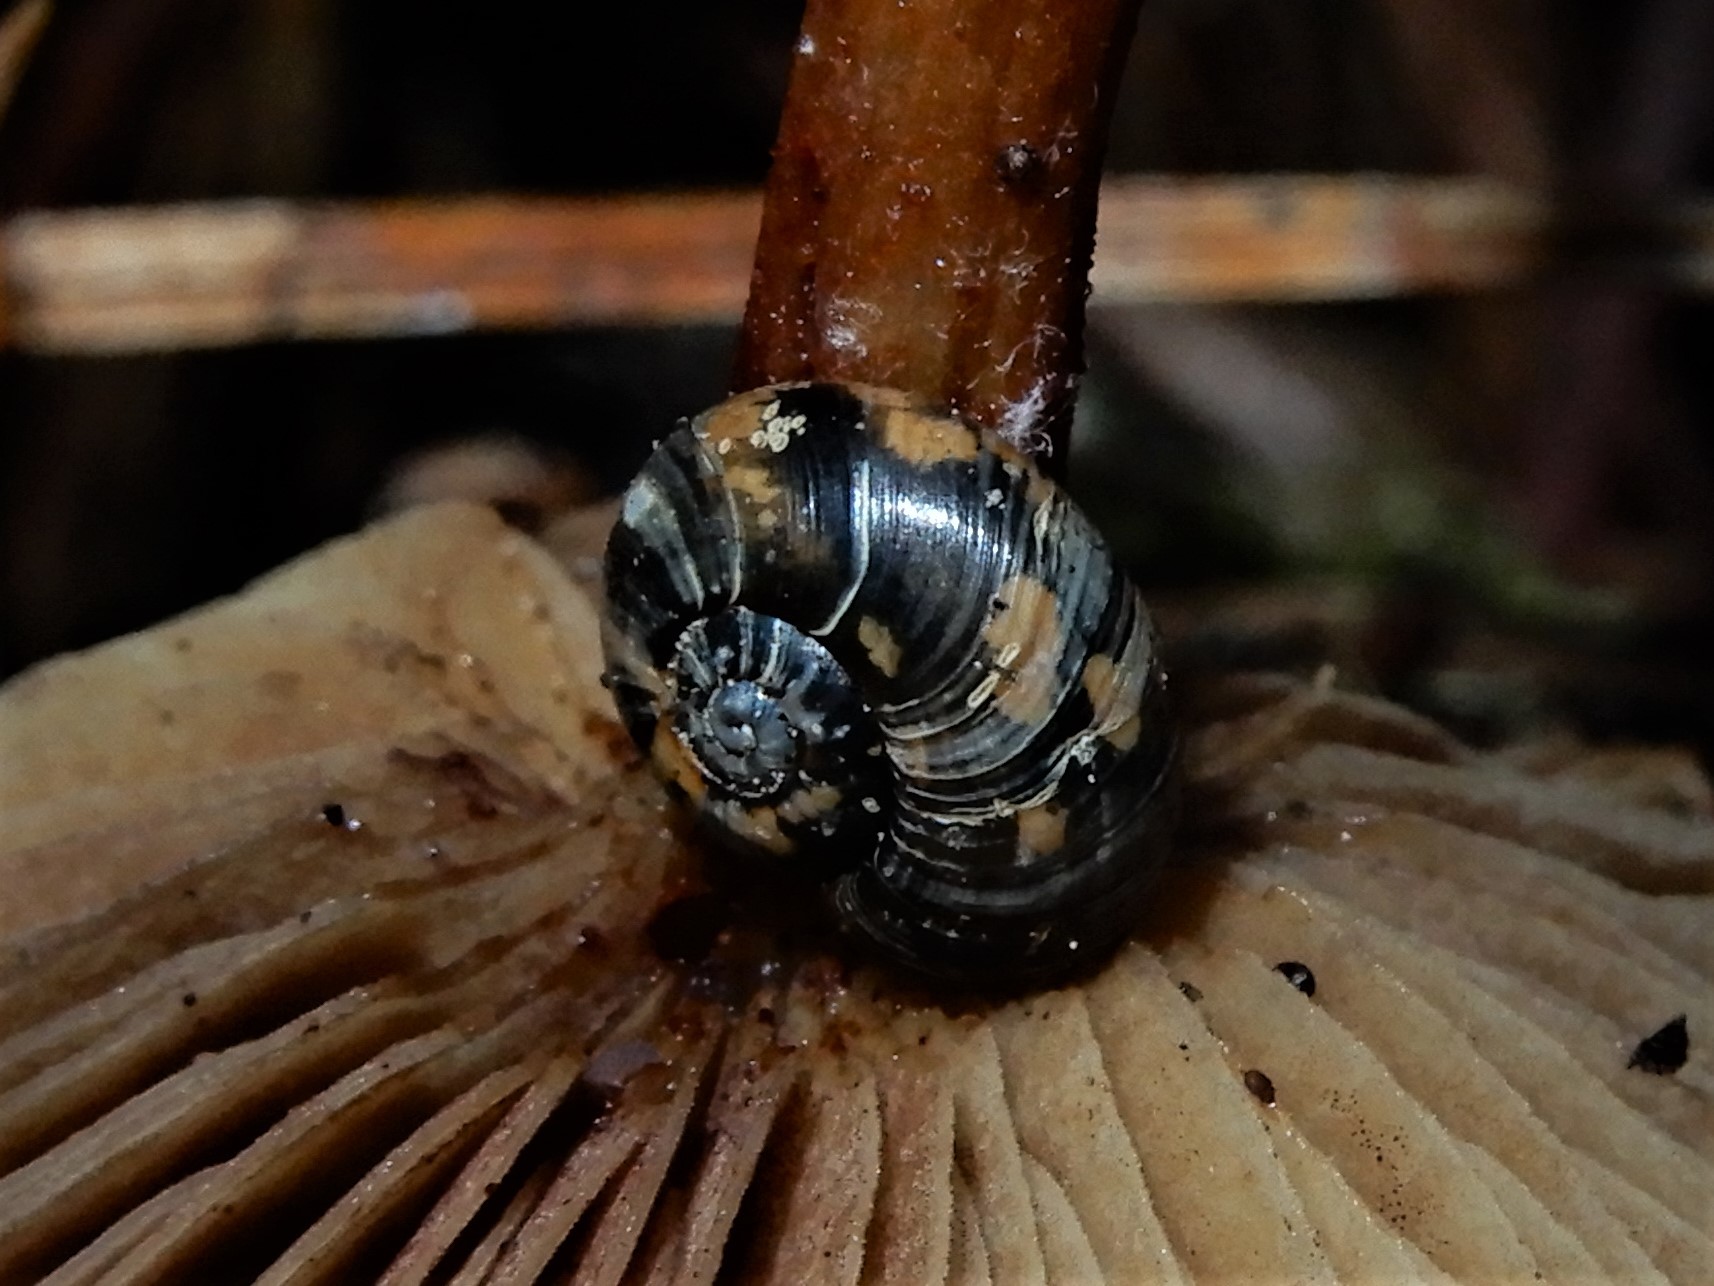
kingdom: Animalia
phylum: Mollusca
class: Gastropoda
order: Stylommatophora
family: Charopidae
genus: Flammulina
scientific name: Flammulina
